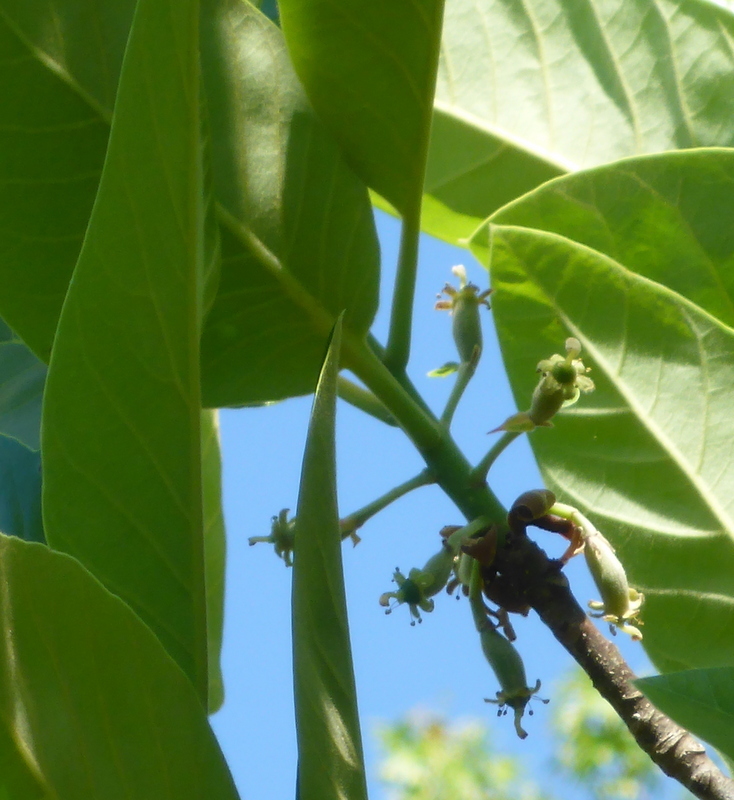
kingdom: Plantae
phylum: Tracheophyta
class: Magnoliopsida
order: Cornales
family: Nyssaceae
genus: Nyssa
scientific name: Nyssa ogeche
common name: Ogeechee tupelo
